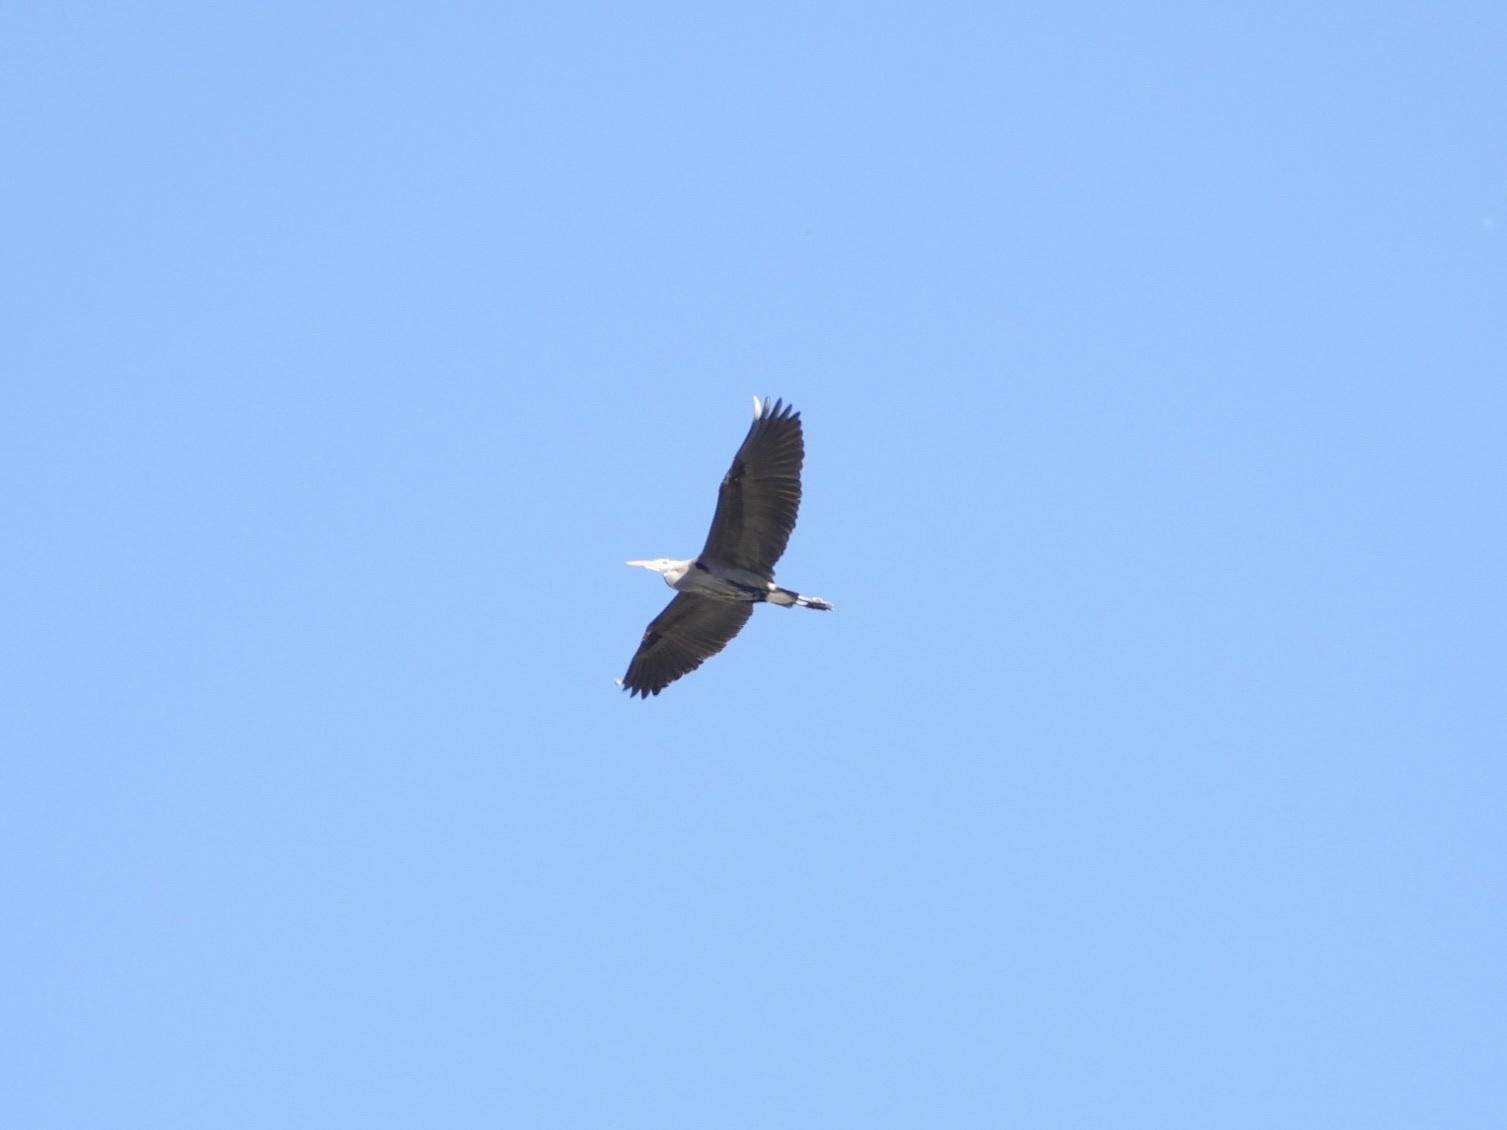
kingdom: Animalia
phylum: Chordata
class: Aves
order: Pelecaniformes
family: Ardeidae
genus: Ardea
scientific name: Ardea herodias
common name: Great blue heron
